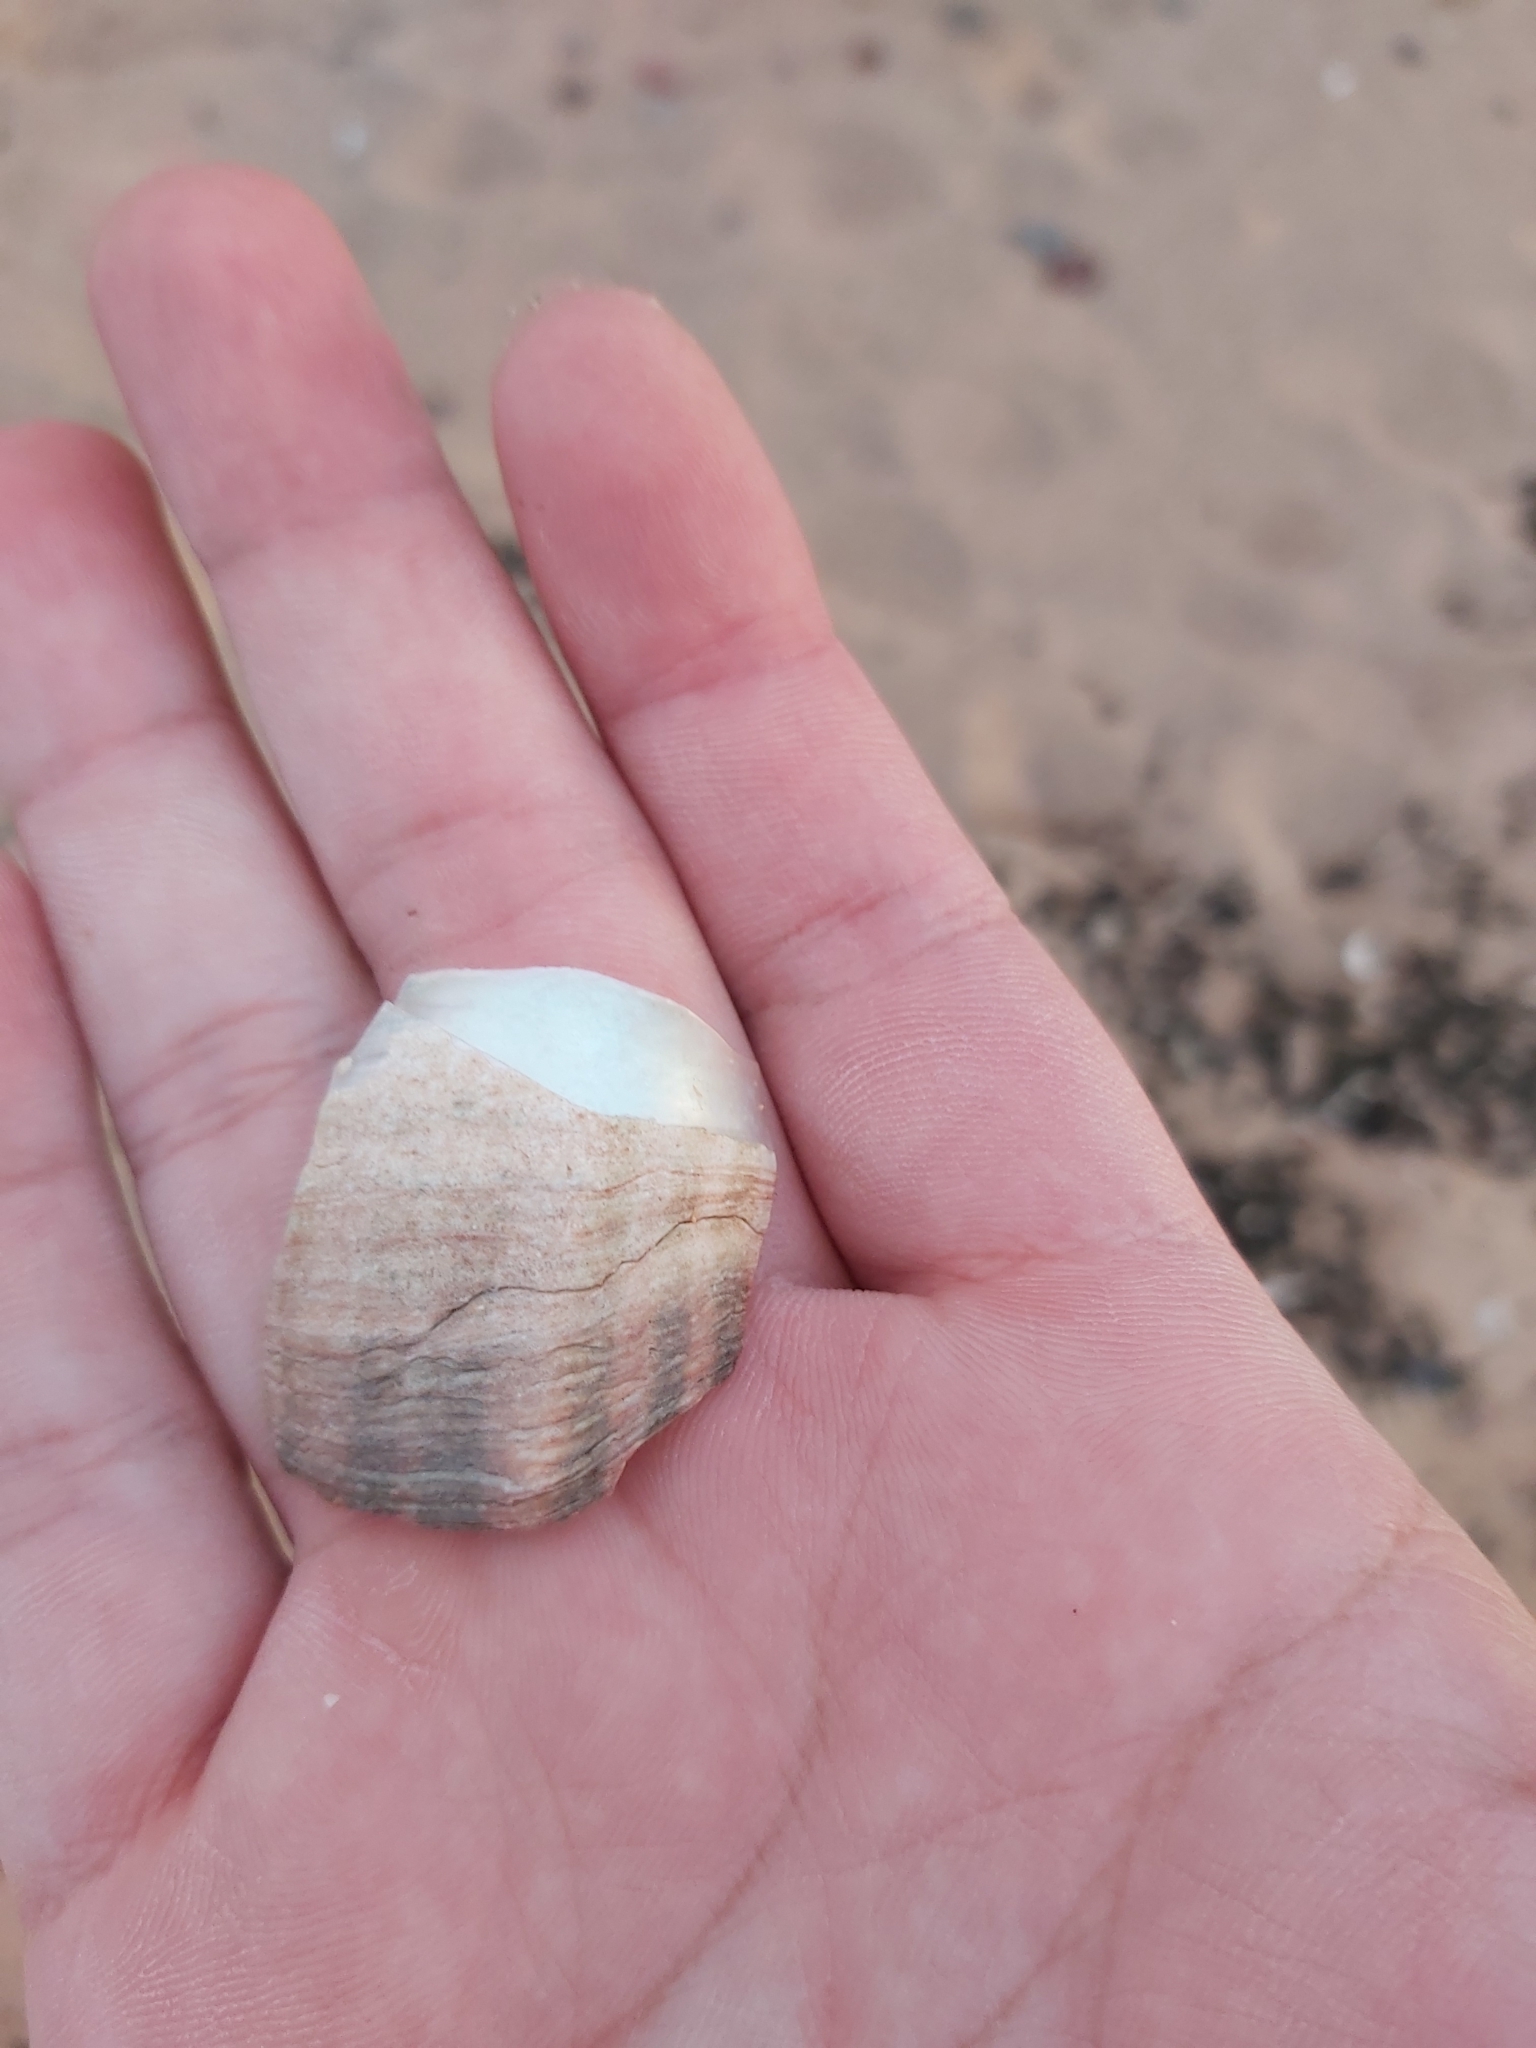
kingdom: Animalia
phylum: Mollusca
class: Gastropoda
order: Trochida
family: Turbinidae
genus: Turbo
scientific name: Turbo militaris
